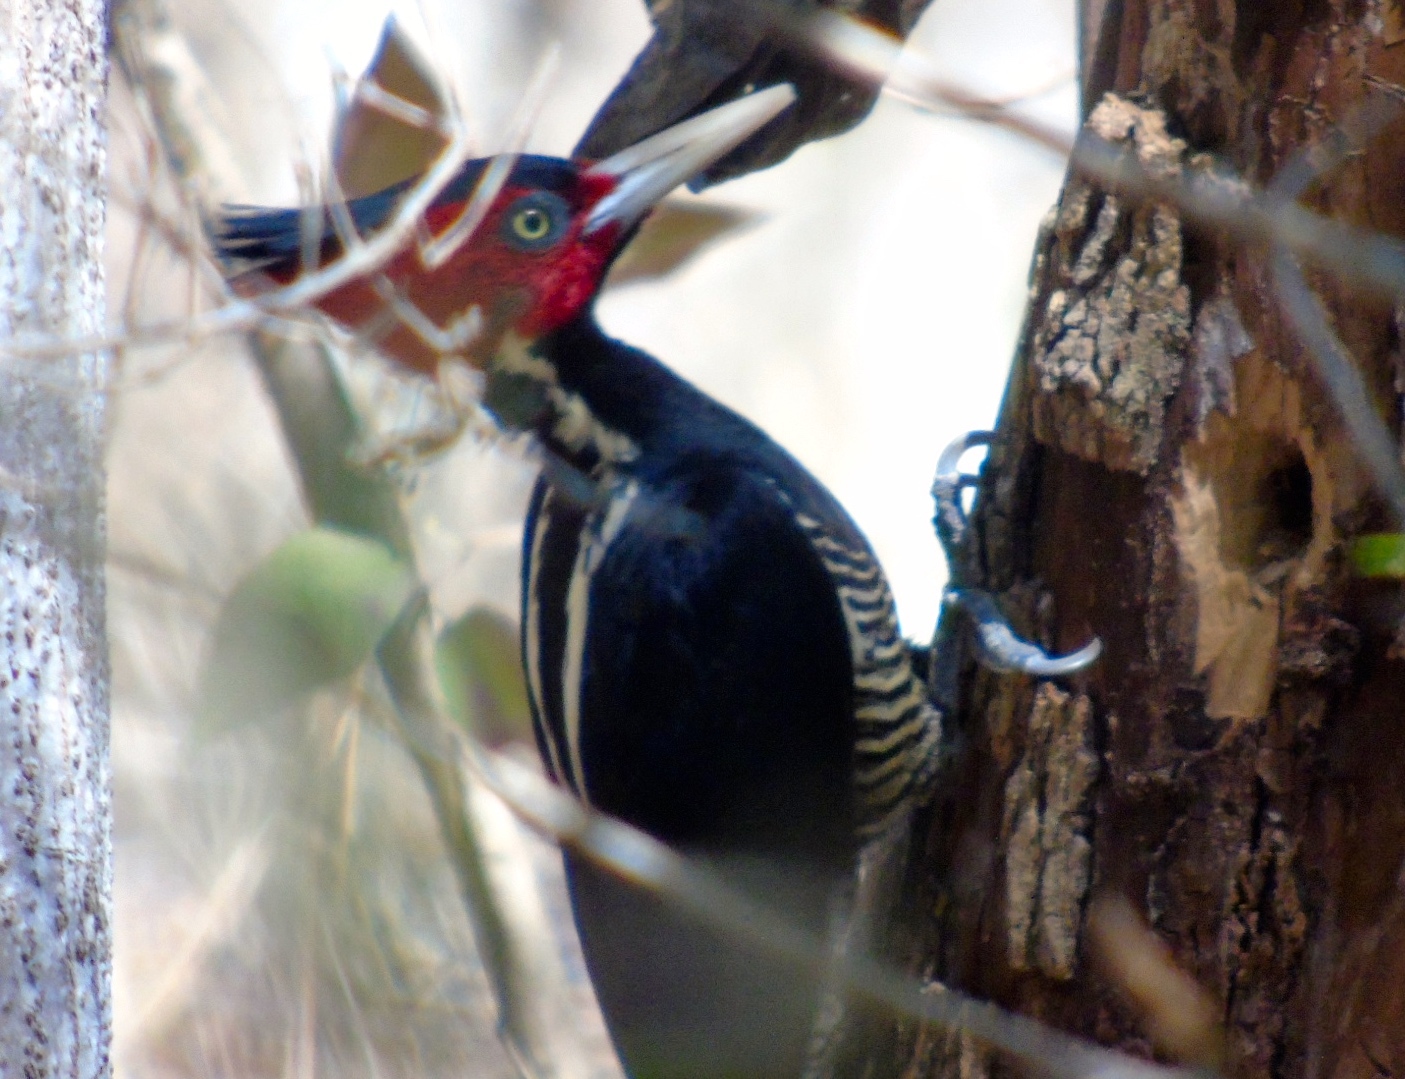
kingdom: Animalia
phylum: Chordata
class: Aves
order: Piciformes
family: Picidae
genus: Campephilus
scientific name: Campephilus guatemalensis
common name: Pale-billed woodpecker
